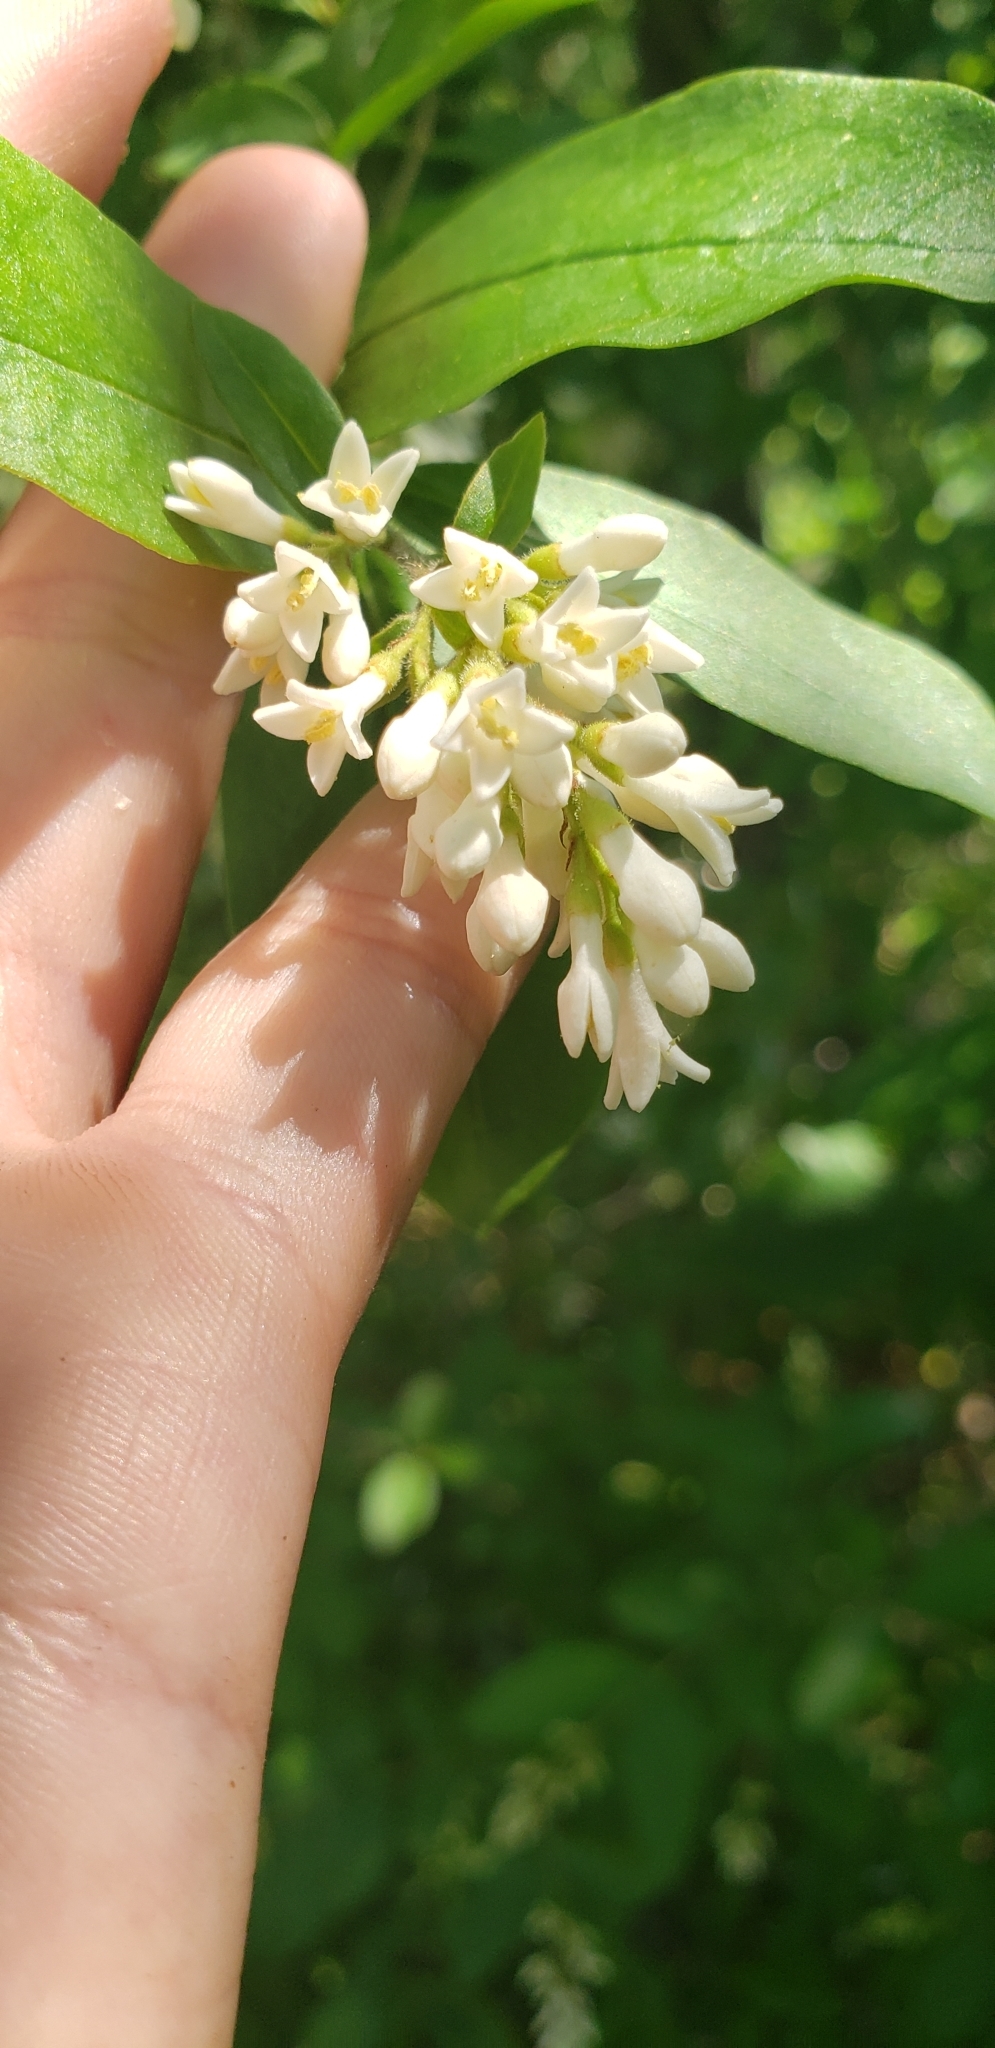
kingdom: Plantae
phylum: Tracheophyta
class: Magnoliopsida
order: Lamiales
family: Oleaceae
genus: Ligustrum
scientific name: Ligustrum obtusifolium
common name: Border privet
